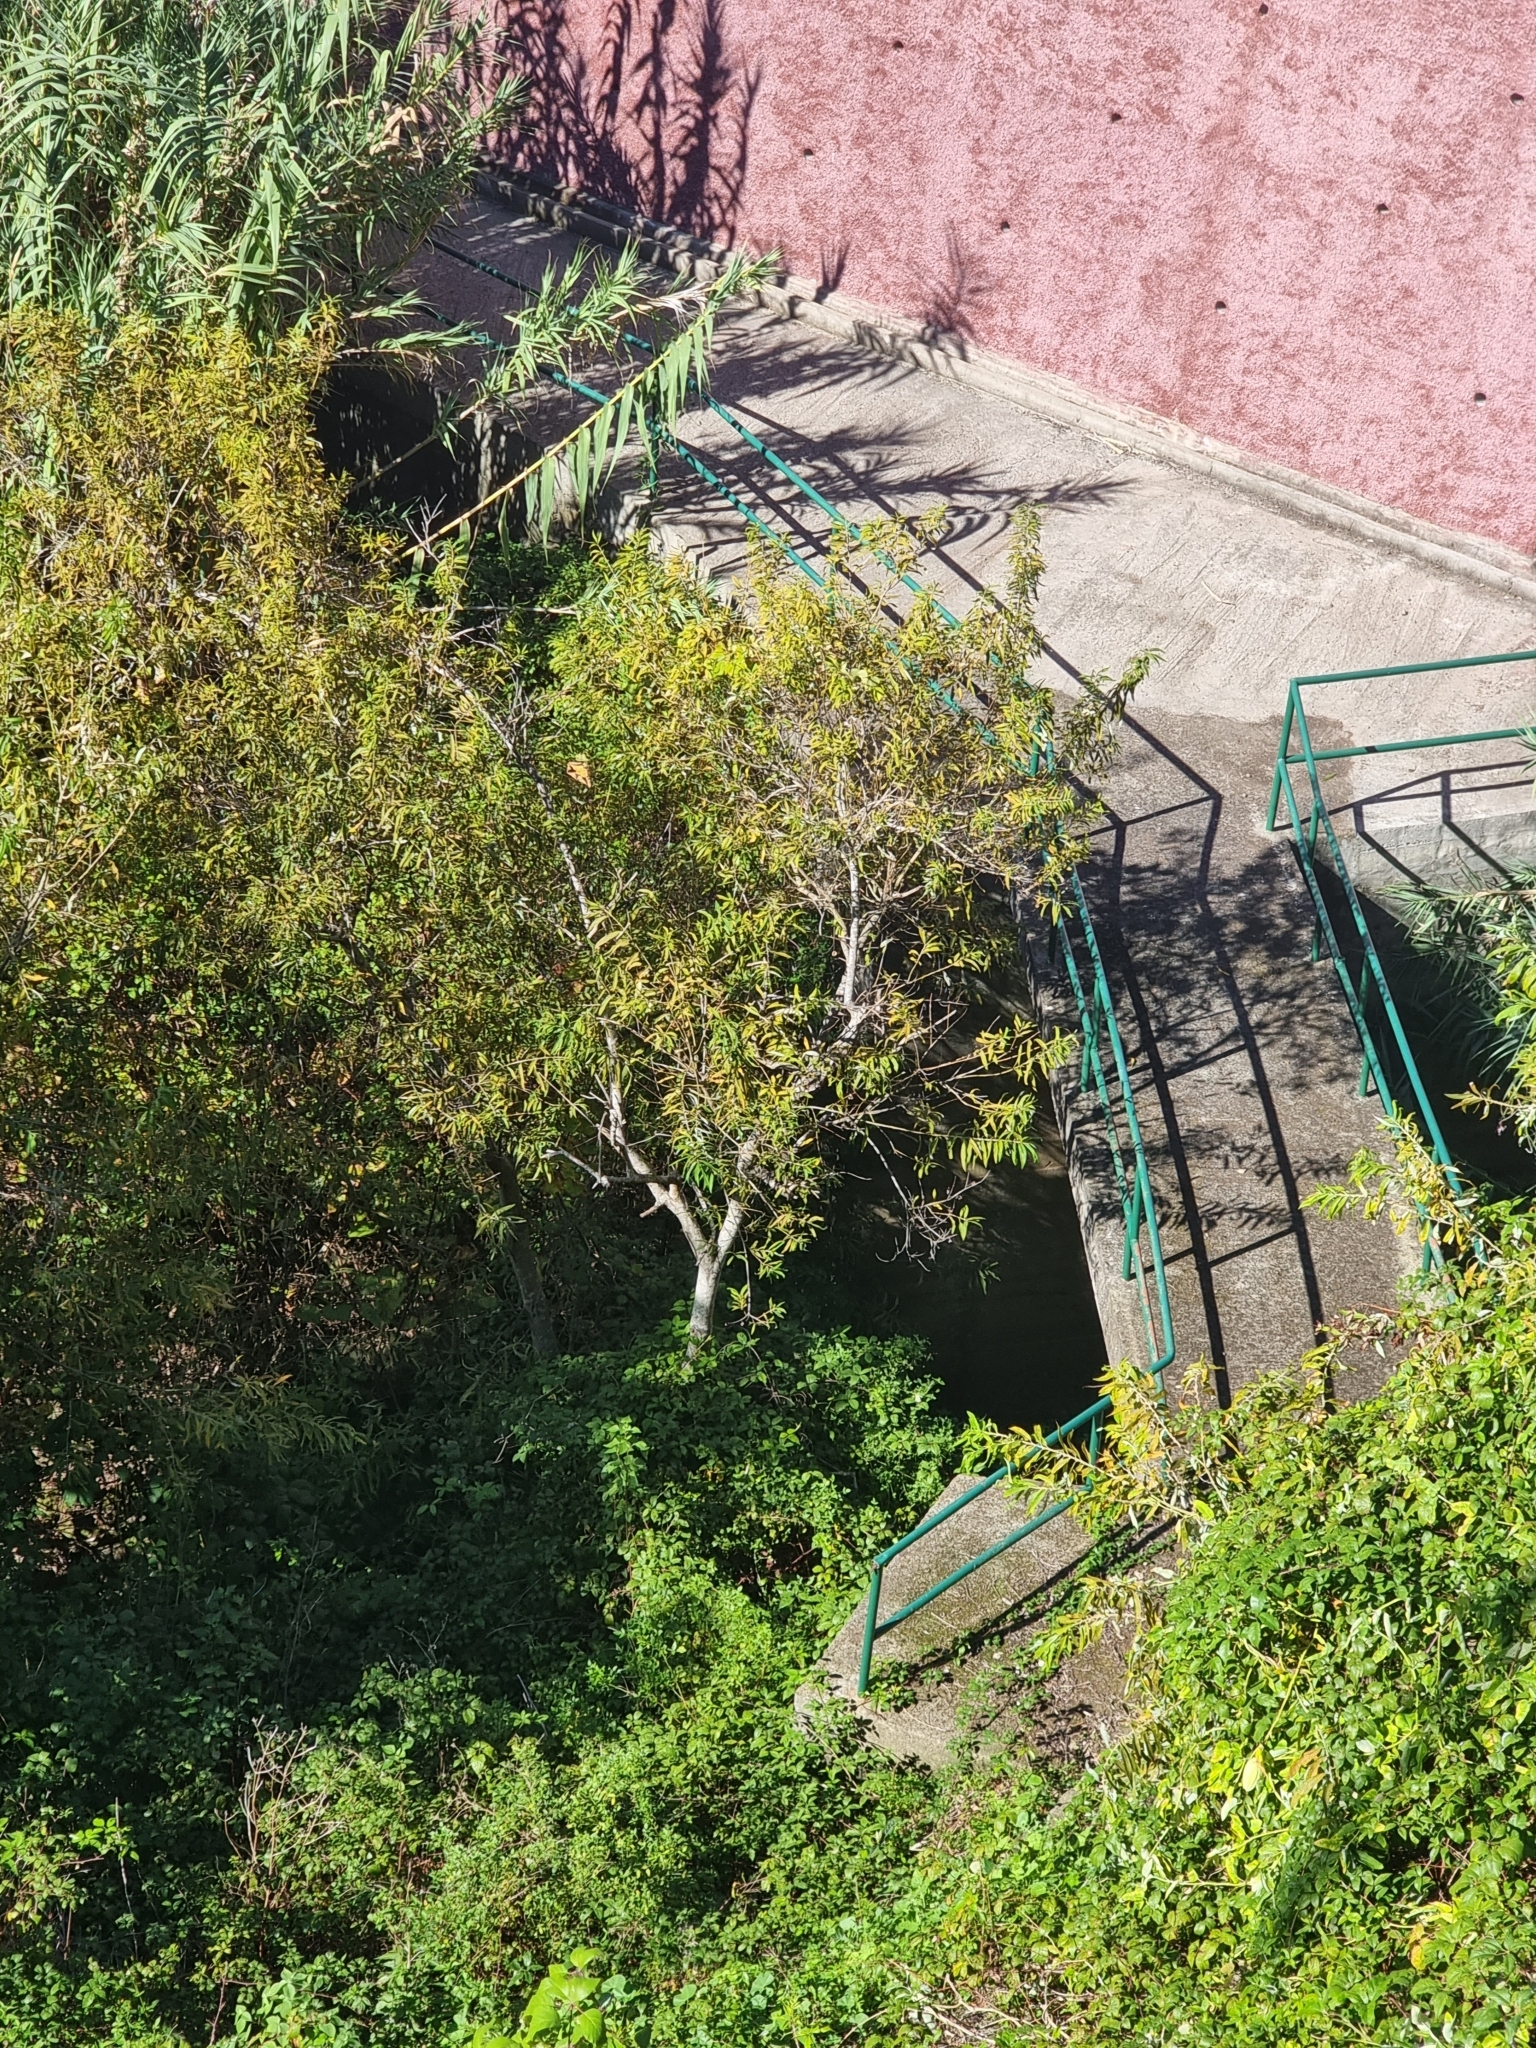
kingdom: Plantae
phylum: Tracheophyta
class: Magnoliopsida
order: Malpighiales
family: Salicaceae
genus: Salix
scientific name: Salix canariensis
